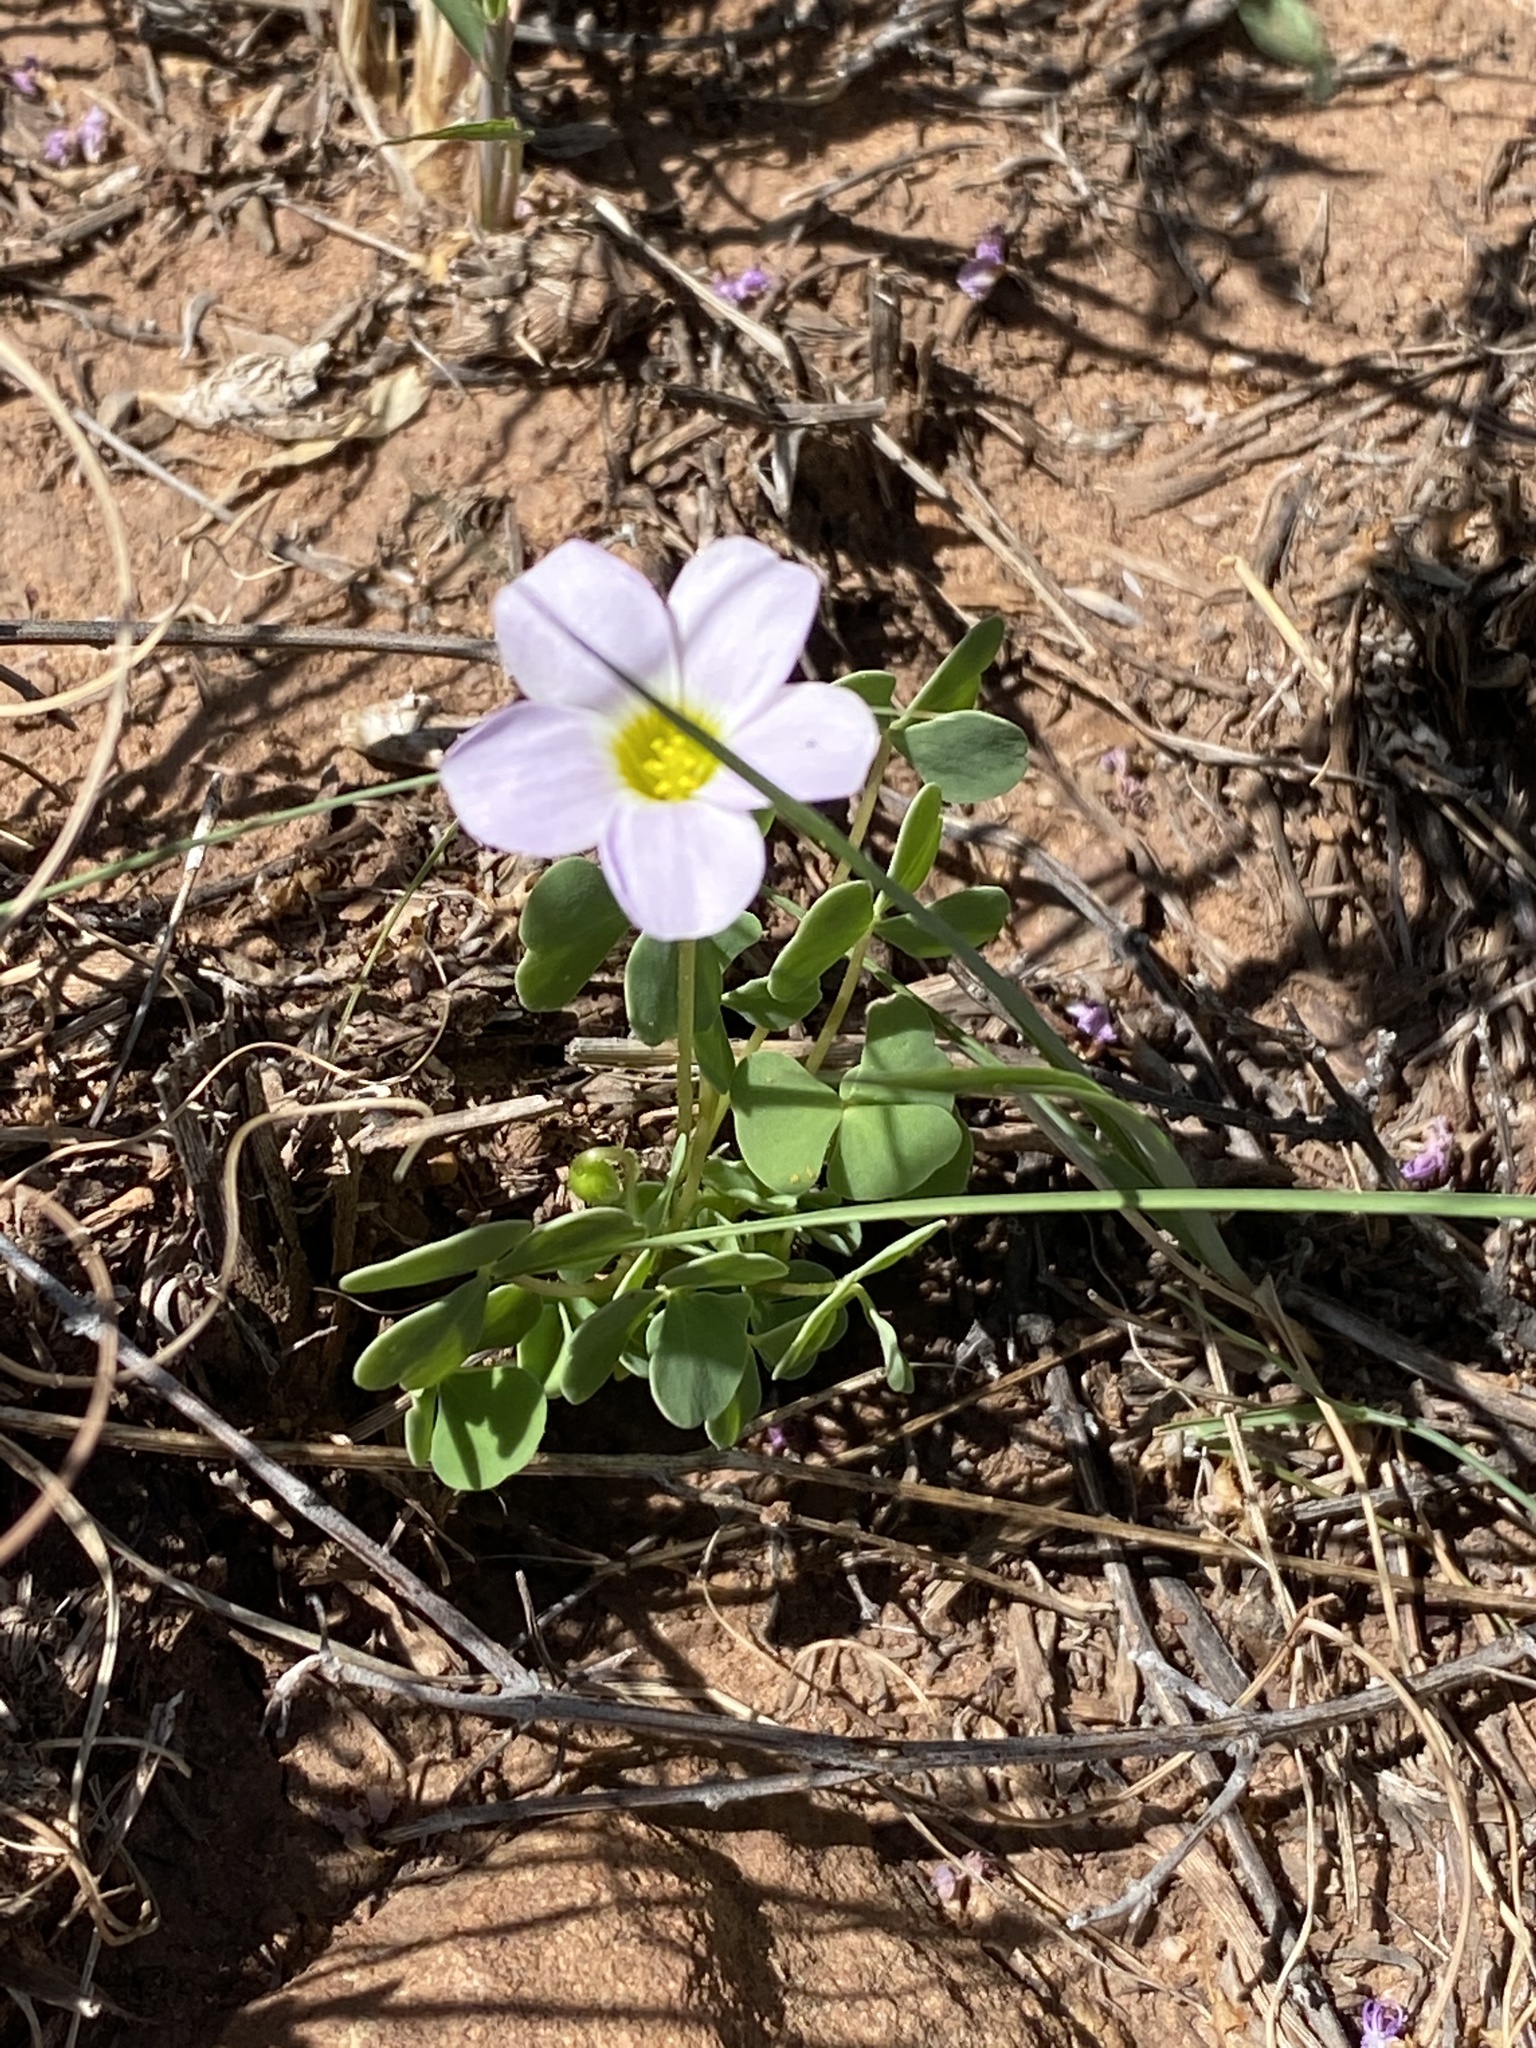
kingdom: Plantae
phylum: Tracheophyta
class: Magnoliopsida
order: Oxalidales
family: Oxalidaceae
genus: Oxalis
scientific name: Oxalis obliquifolia
